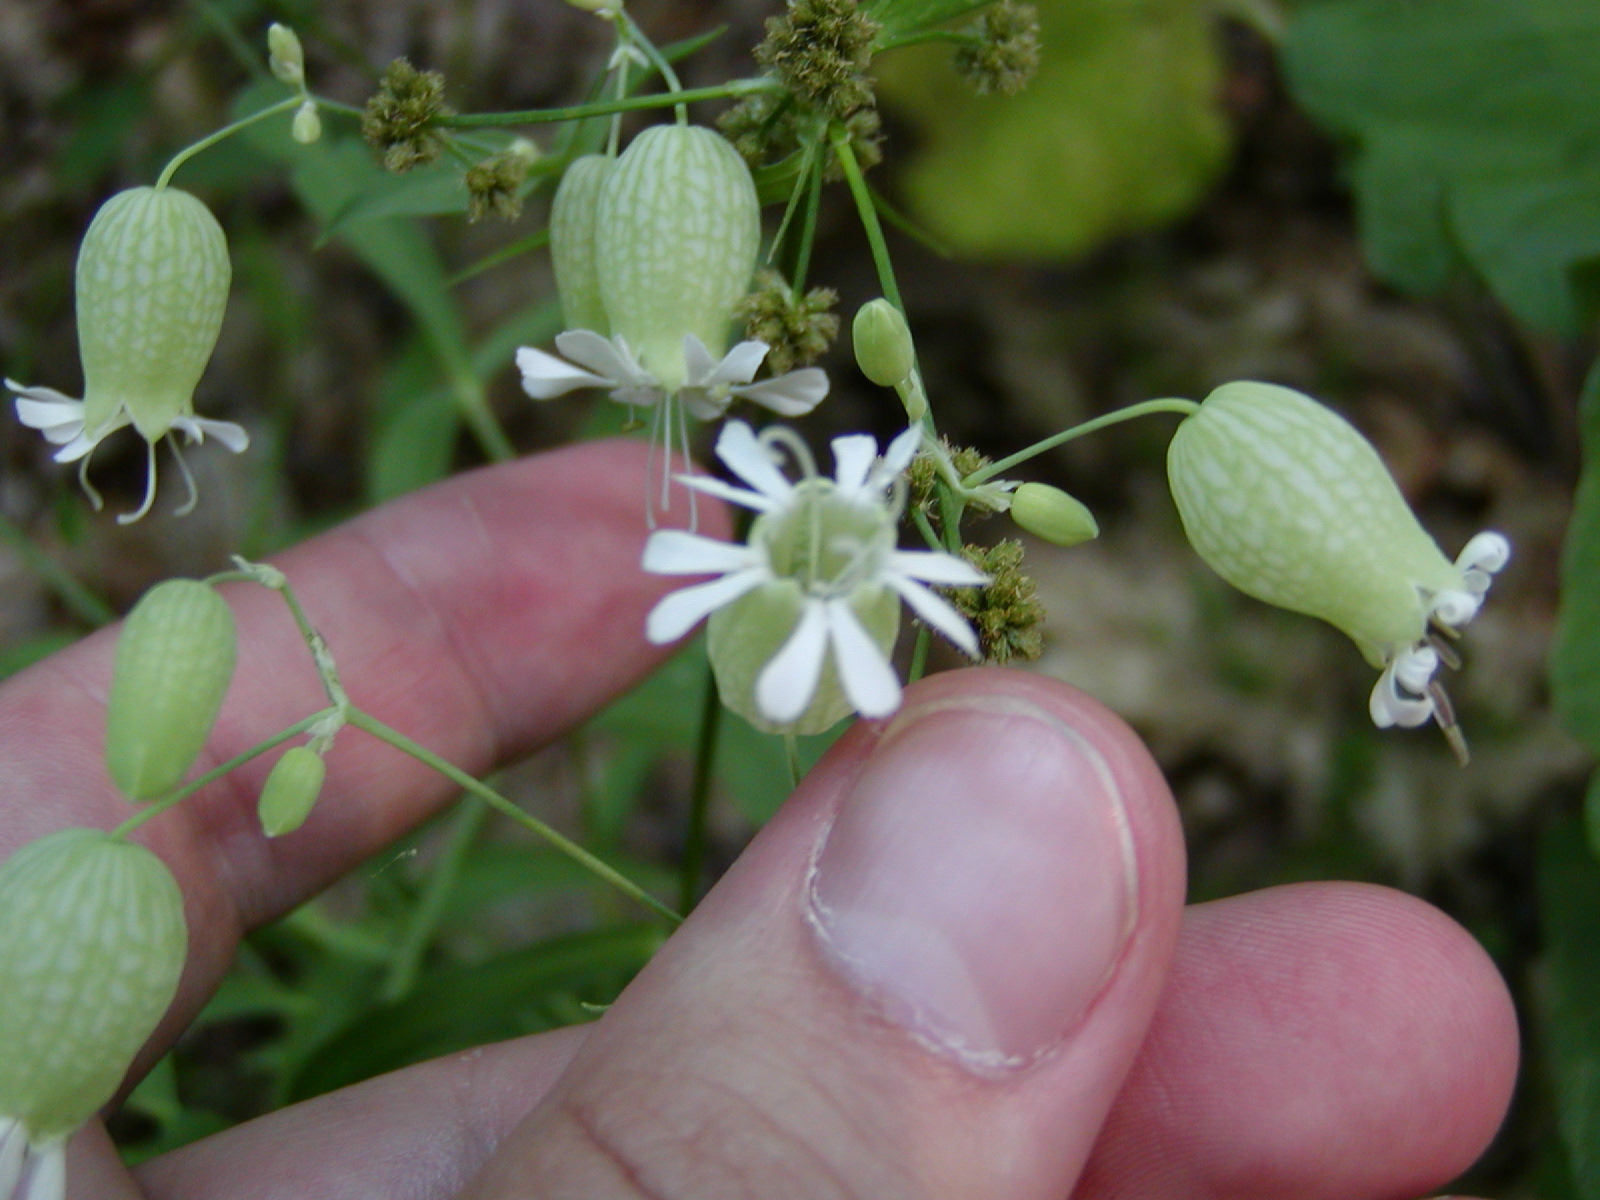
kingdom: Plantae
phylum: Tracheophyta
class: Magnoliopsida
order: Caryophyllales
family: Caryophyllaceae
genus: Silene
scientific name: Silene vulgaris
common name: Bladder campion
